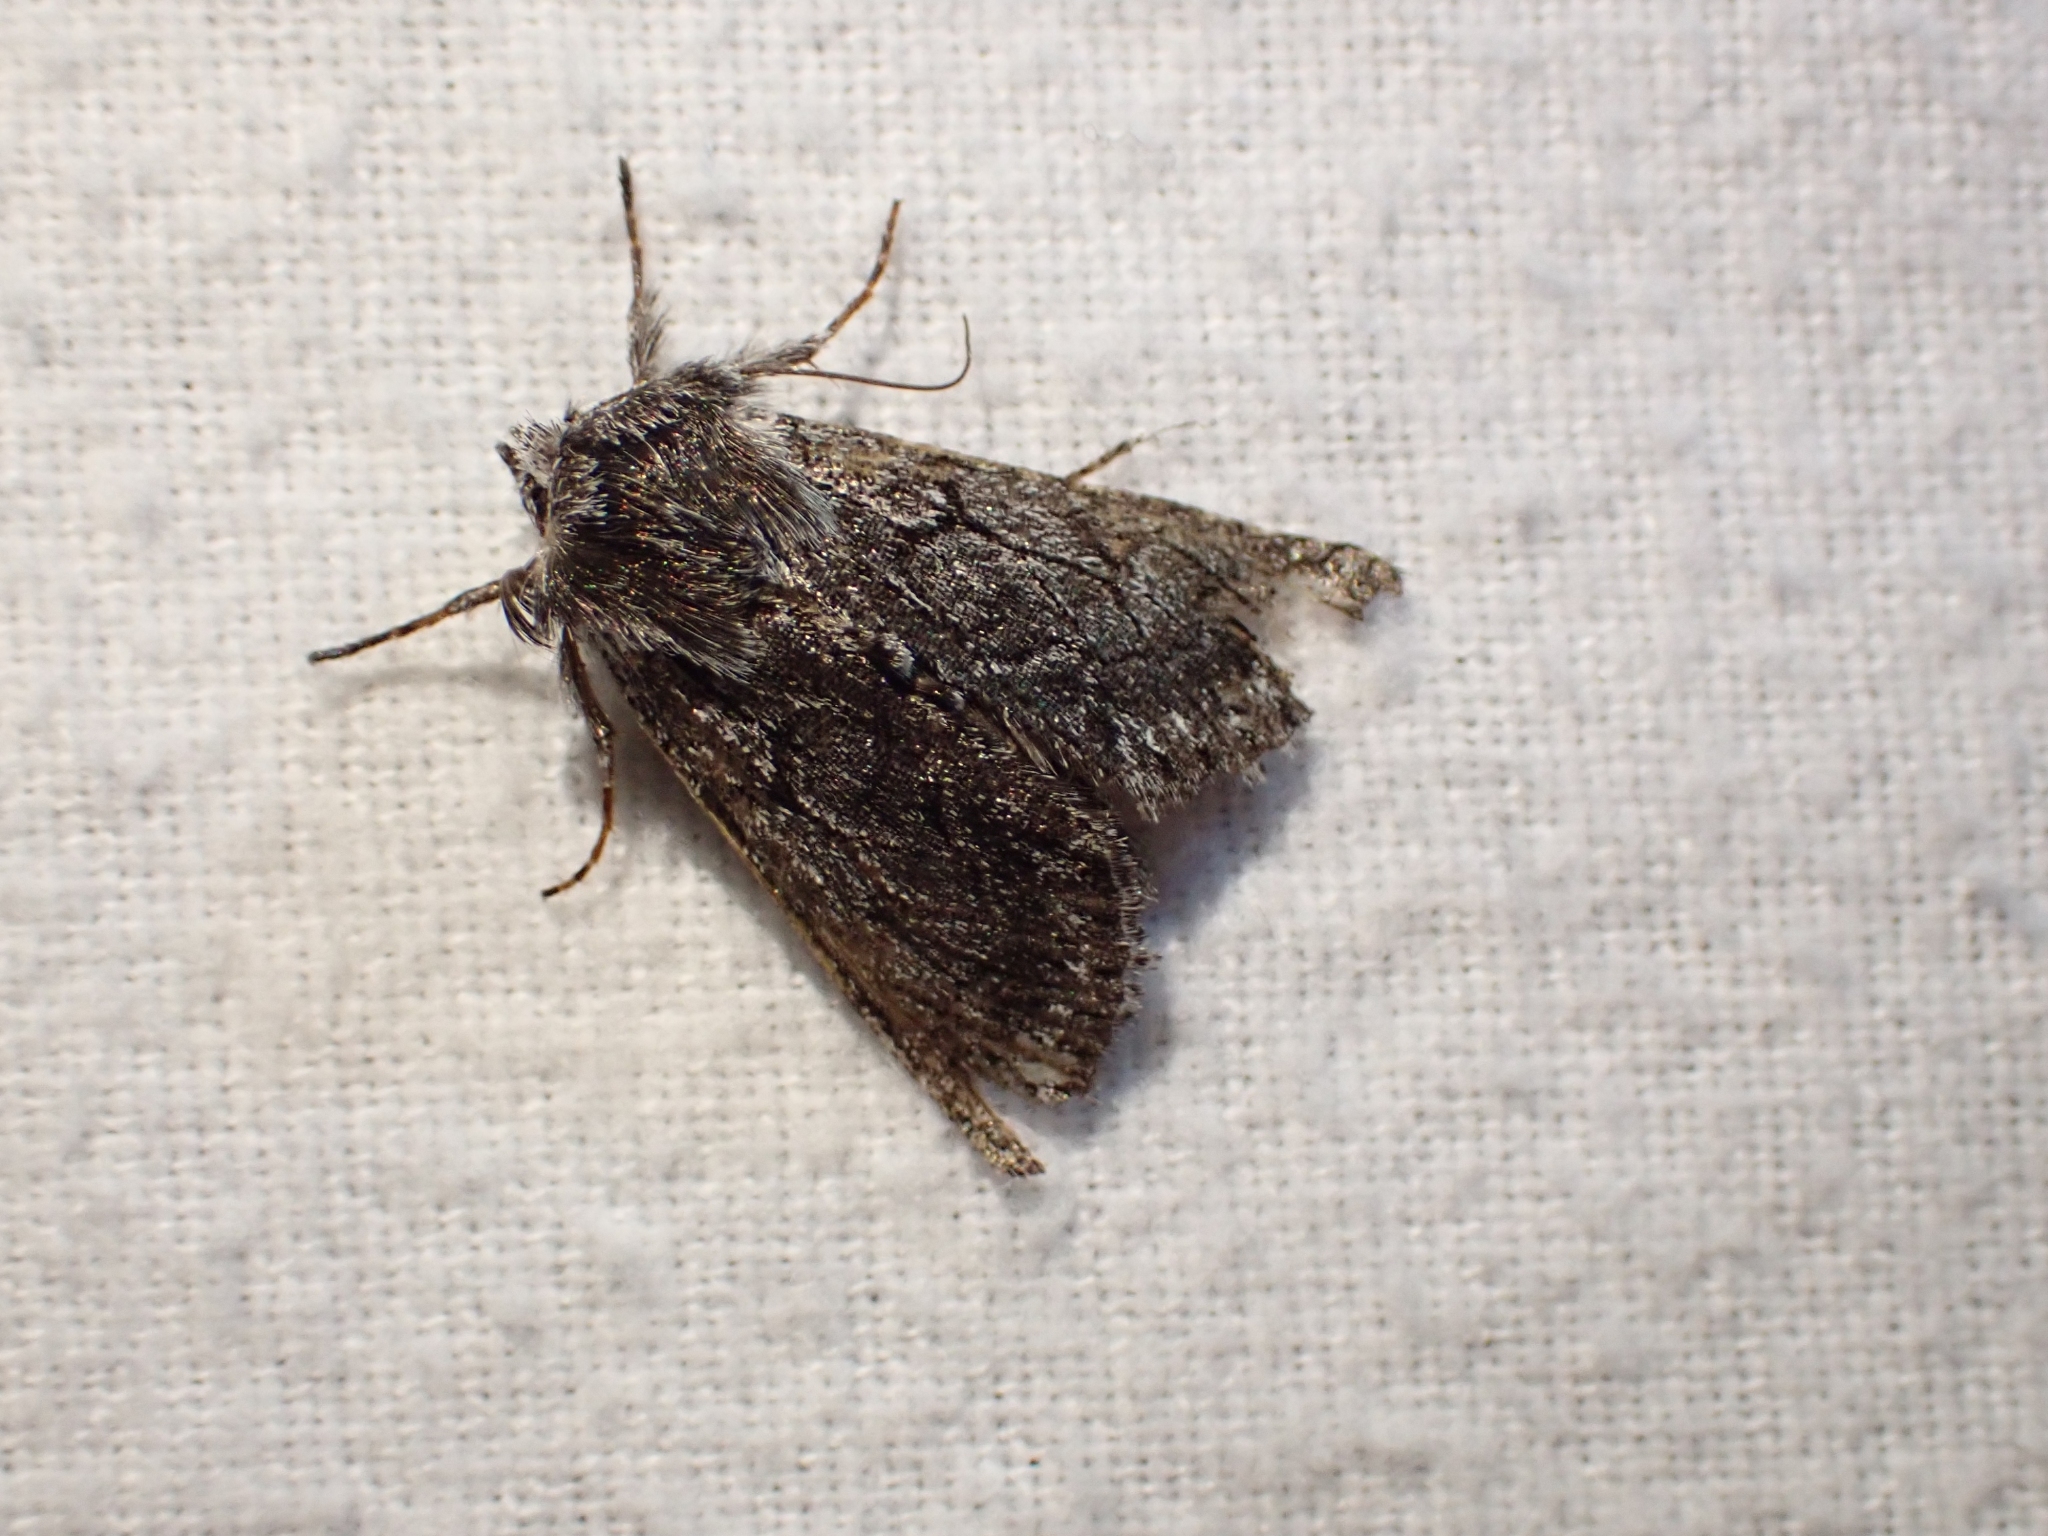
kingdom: Animalia
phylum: Arthropoda
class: Insecta
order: Lepidoptera
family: Noctuidae
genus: Pleromelloida
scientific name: Pleromelloida conserta
